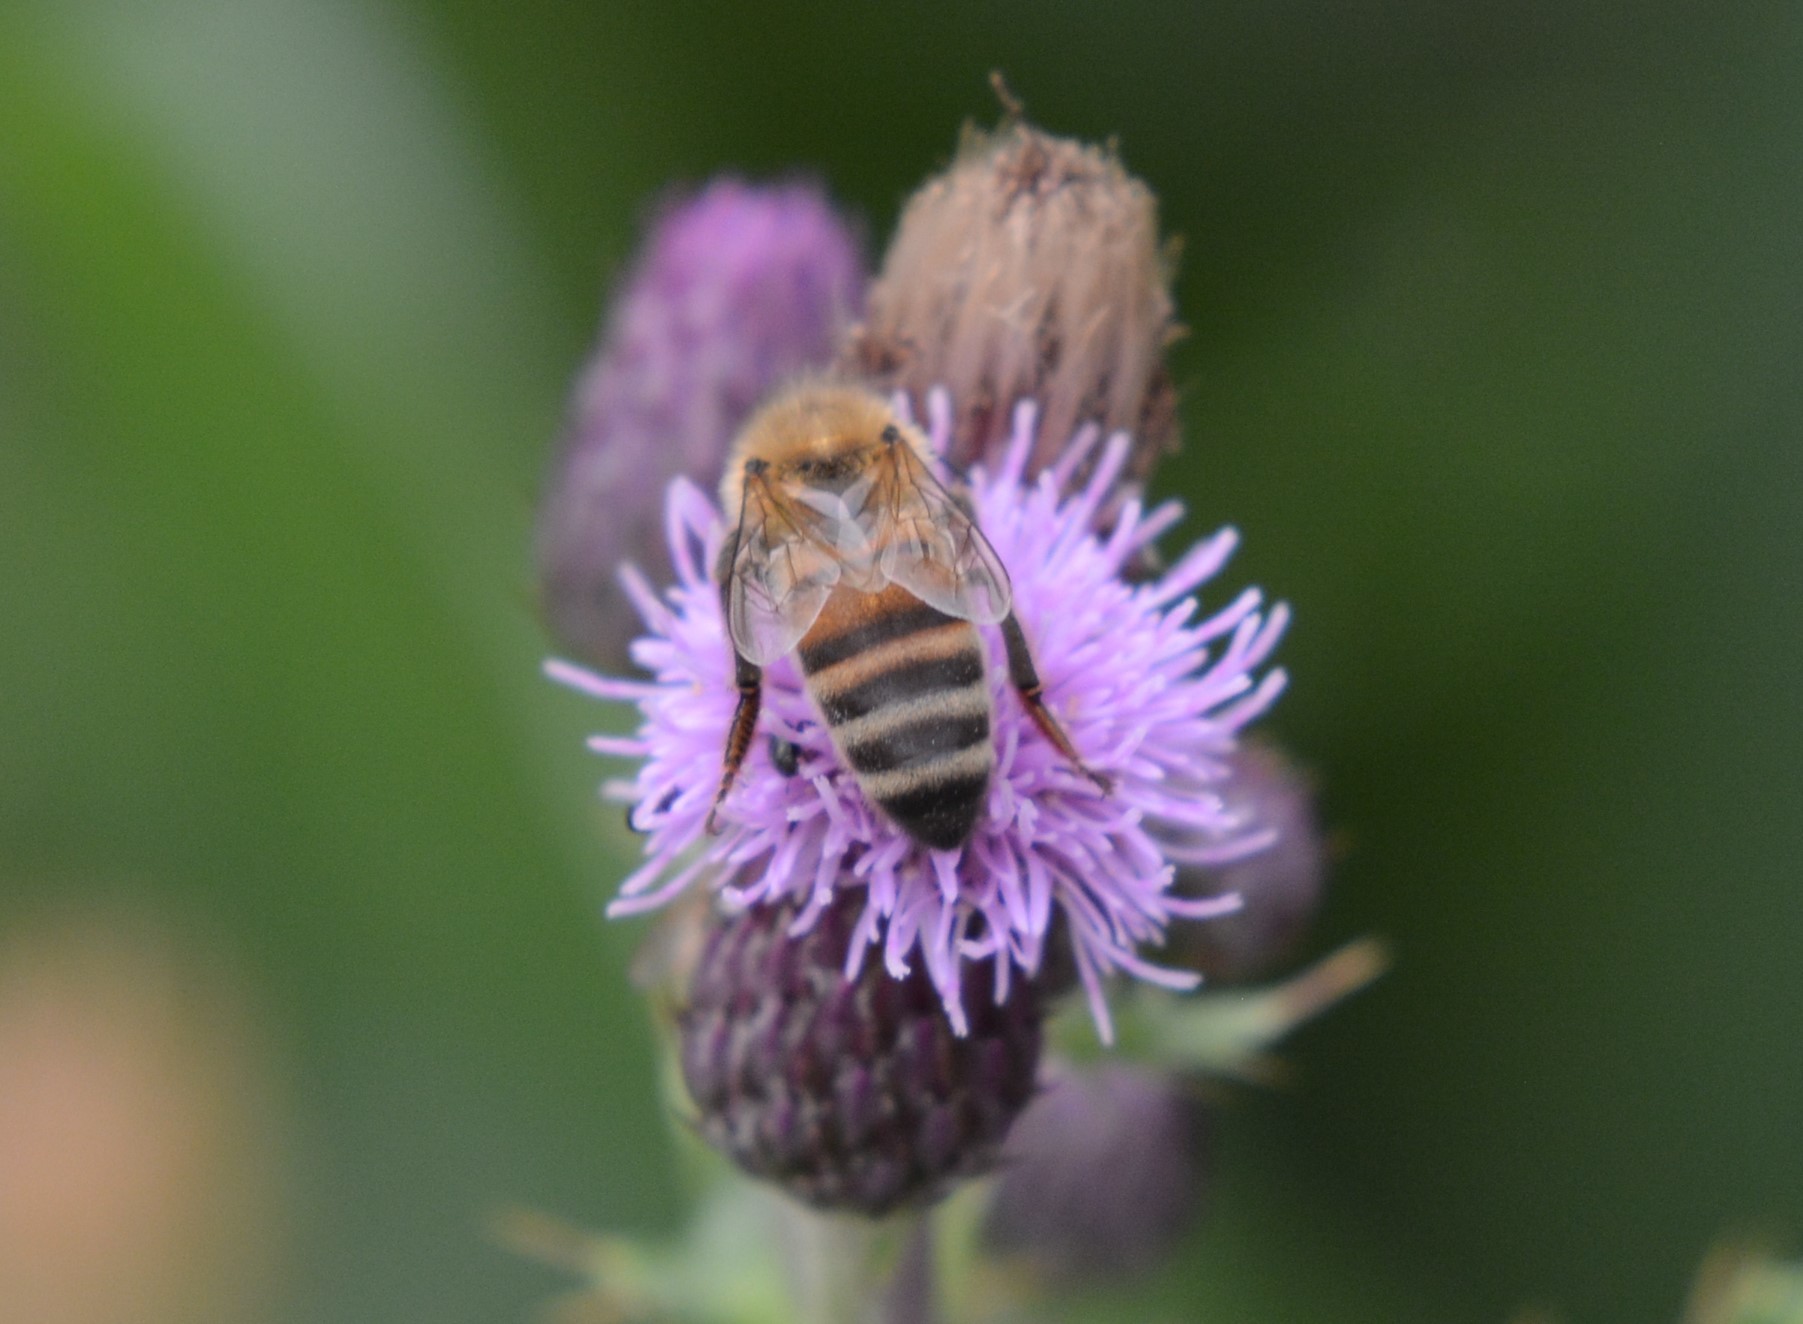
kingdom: Animalia
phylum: Arthropoda
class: Insecta
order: Hymenoptera
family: Apidae
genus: Apis
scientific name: Apis mellifera
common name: Honey bee
